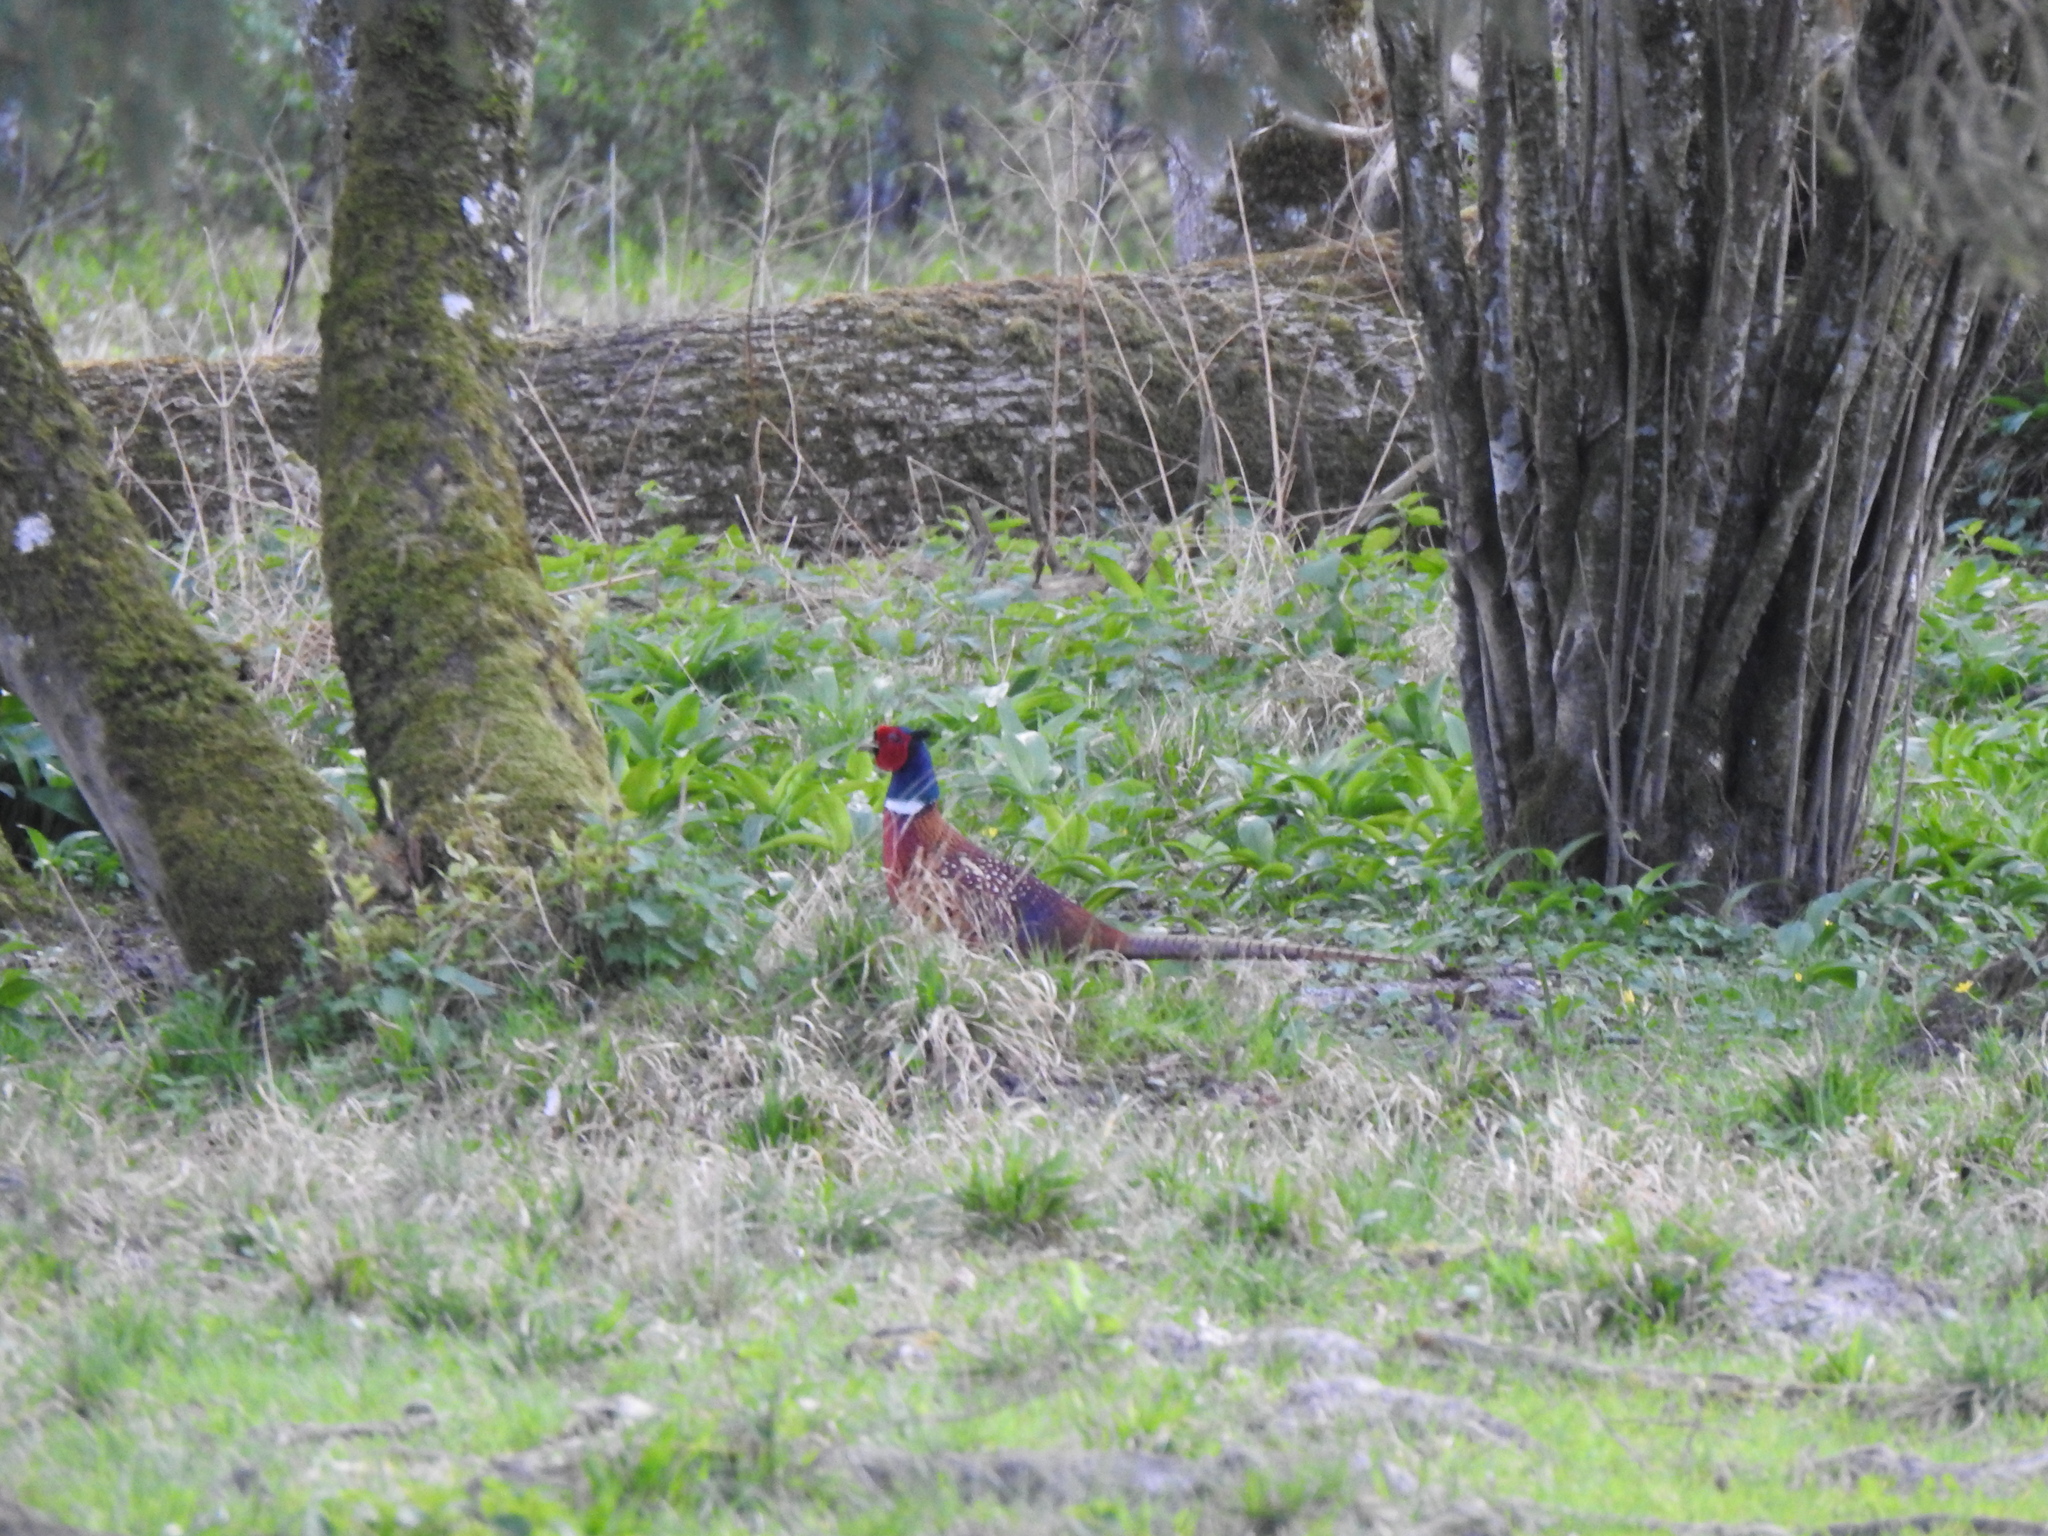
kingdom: Animalia
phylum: Chordata
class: Aves
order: Galliformes
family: Phasianidae
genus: Phasianus
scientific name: Phasianus colchicus
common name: Common pheasant
